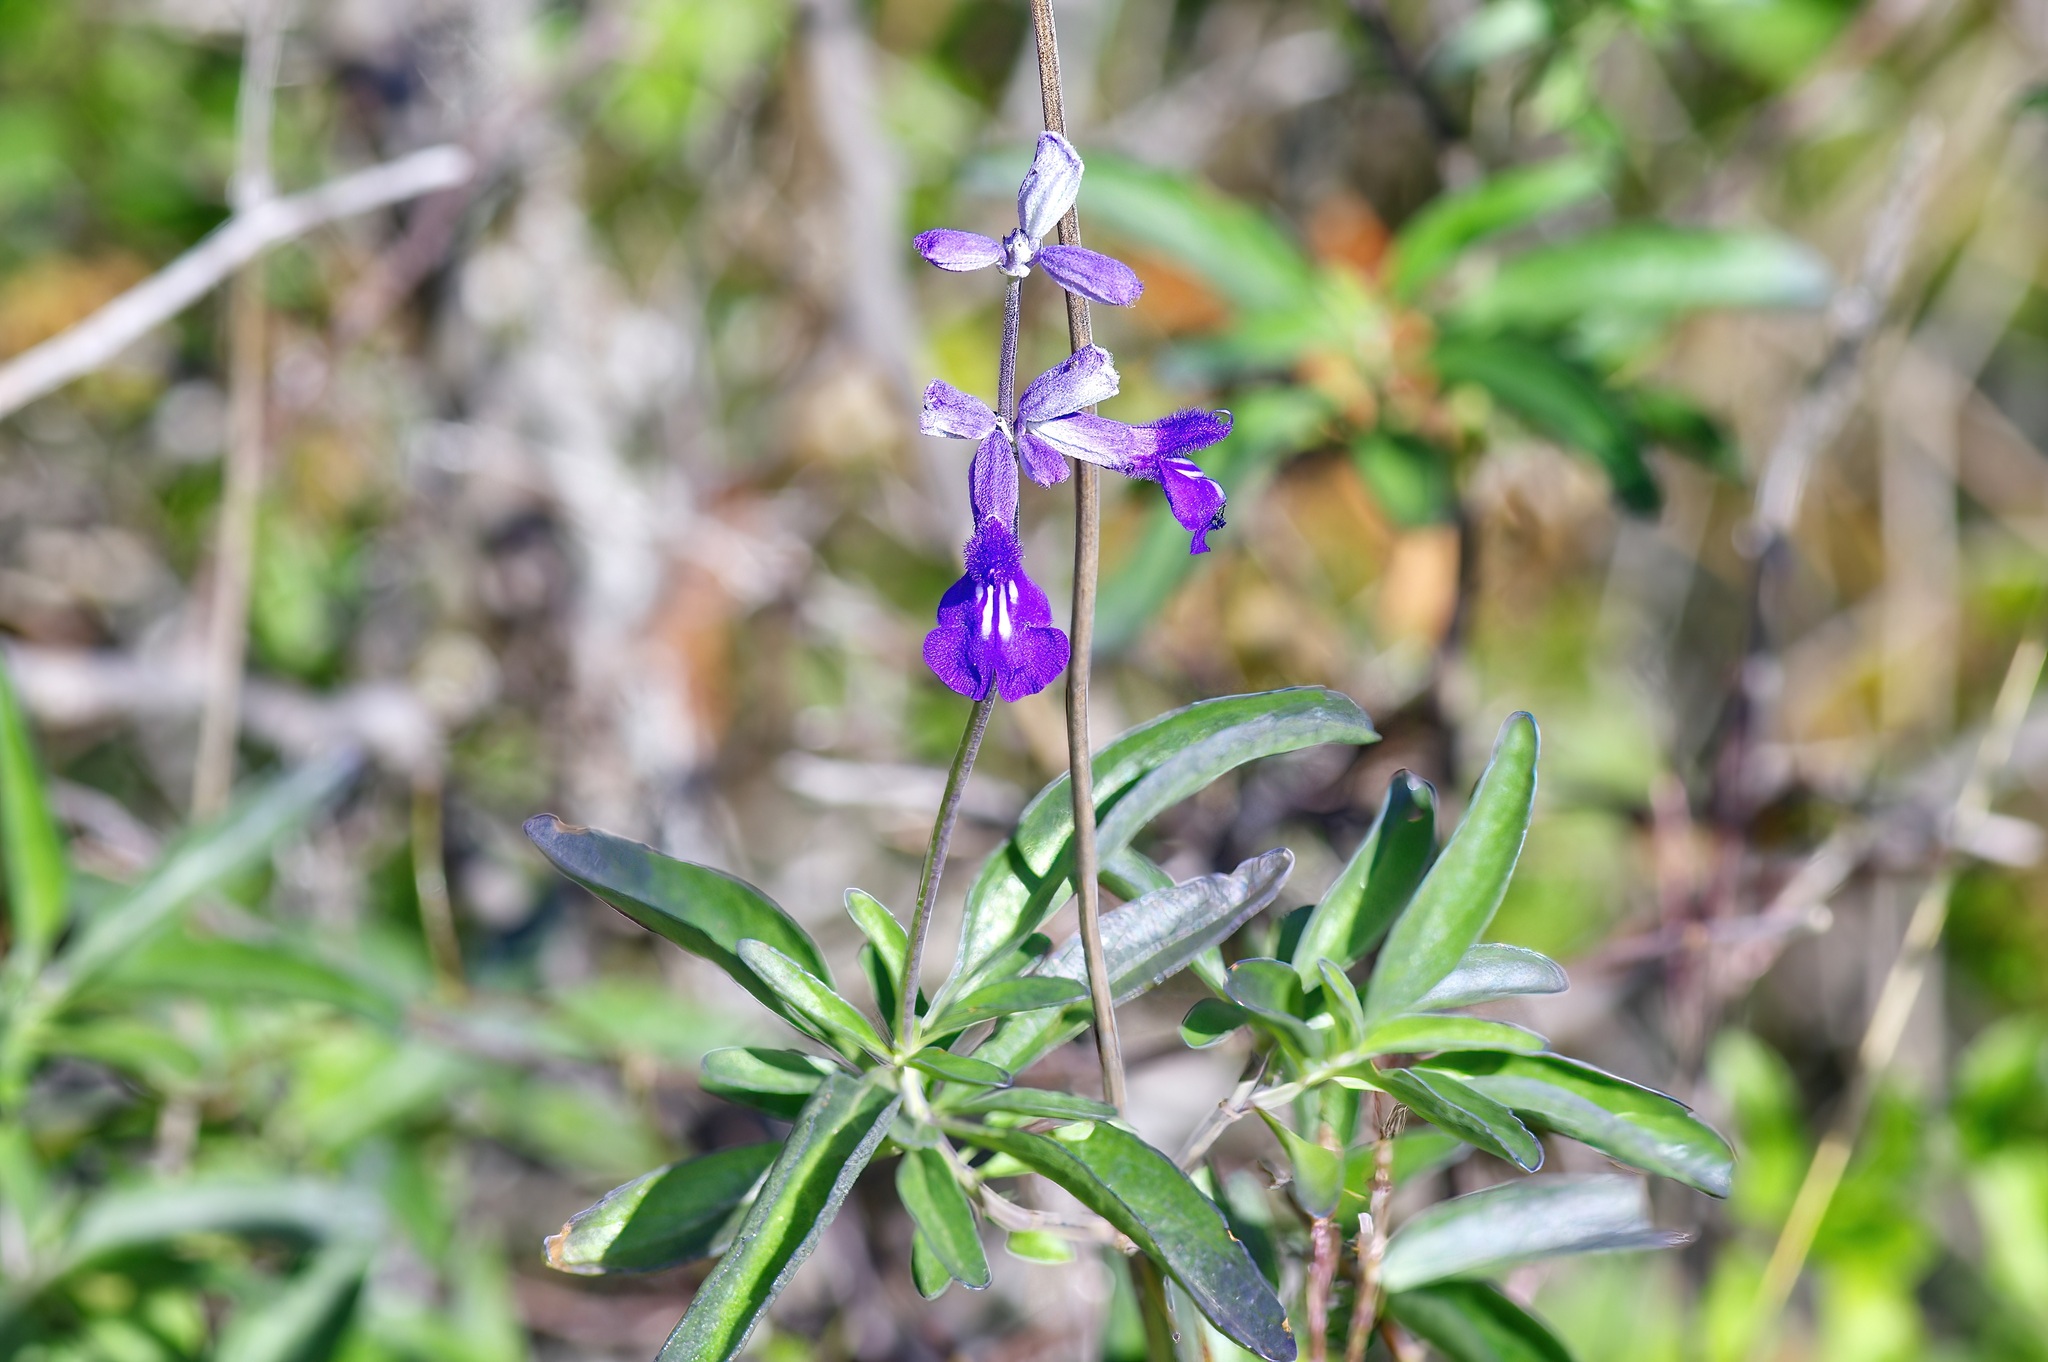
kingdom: Plantae
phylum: Tracheophyta
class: Magnoliopsida
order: Lamiales
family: Lamiaceae
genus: Salvia
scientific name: Salvia farinacea
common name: Mealy sage
